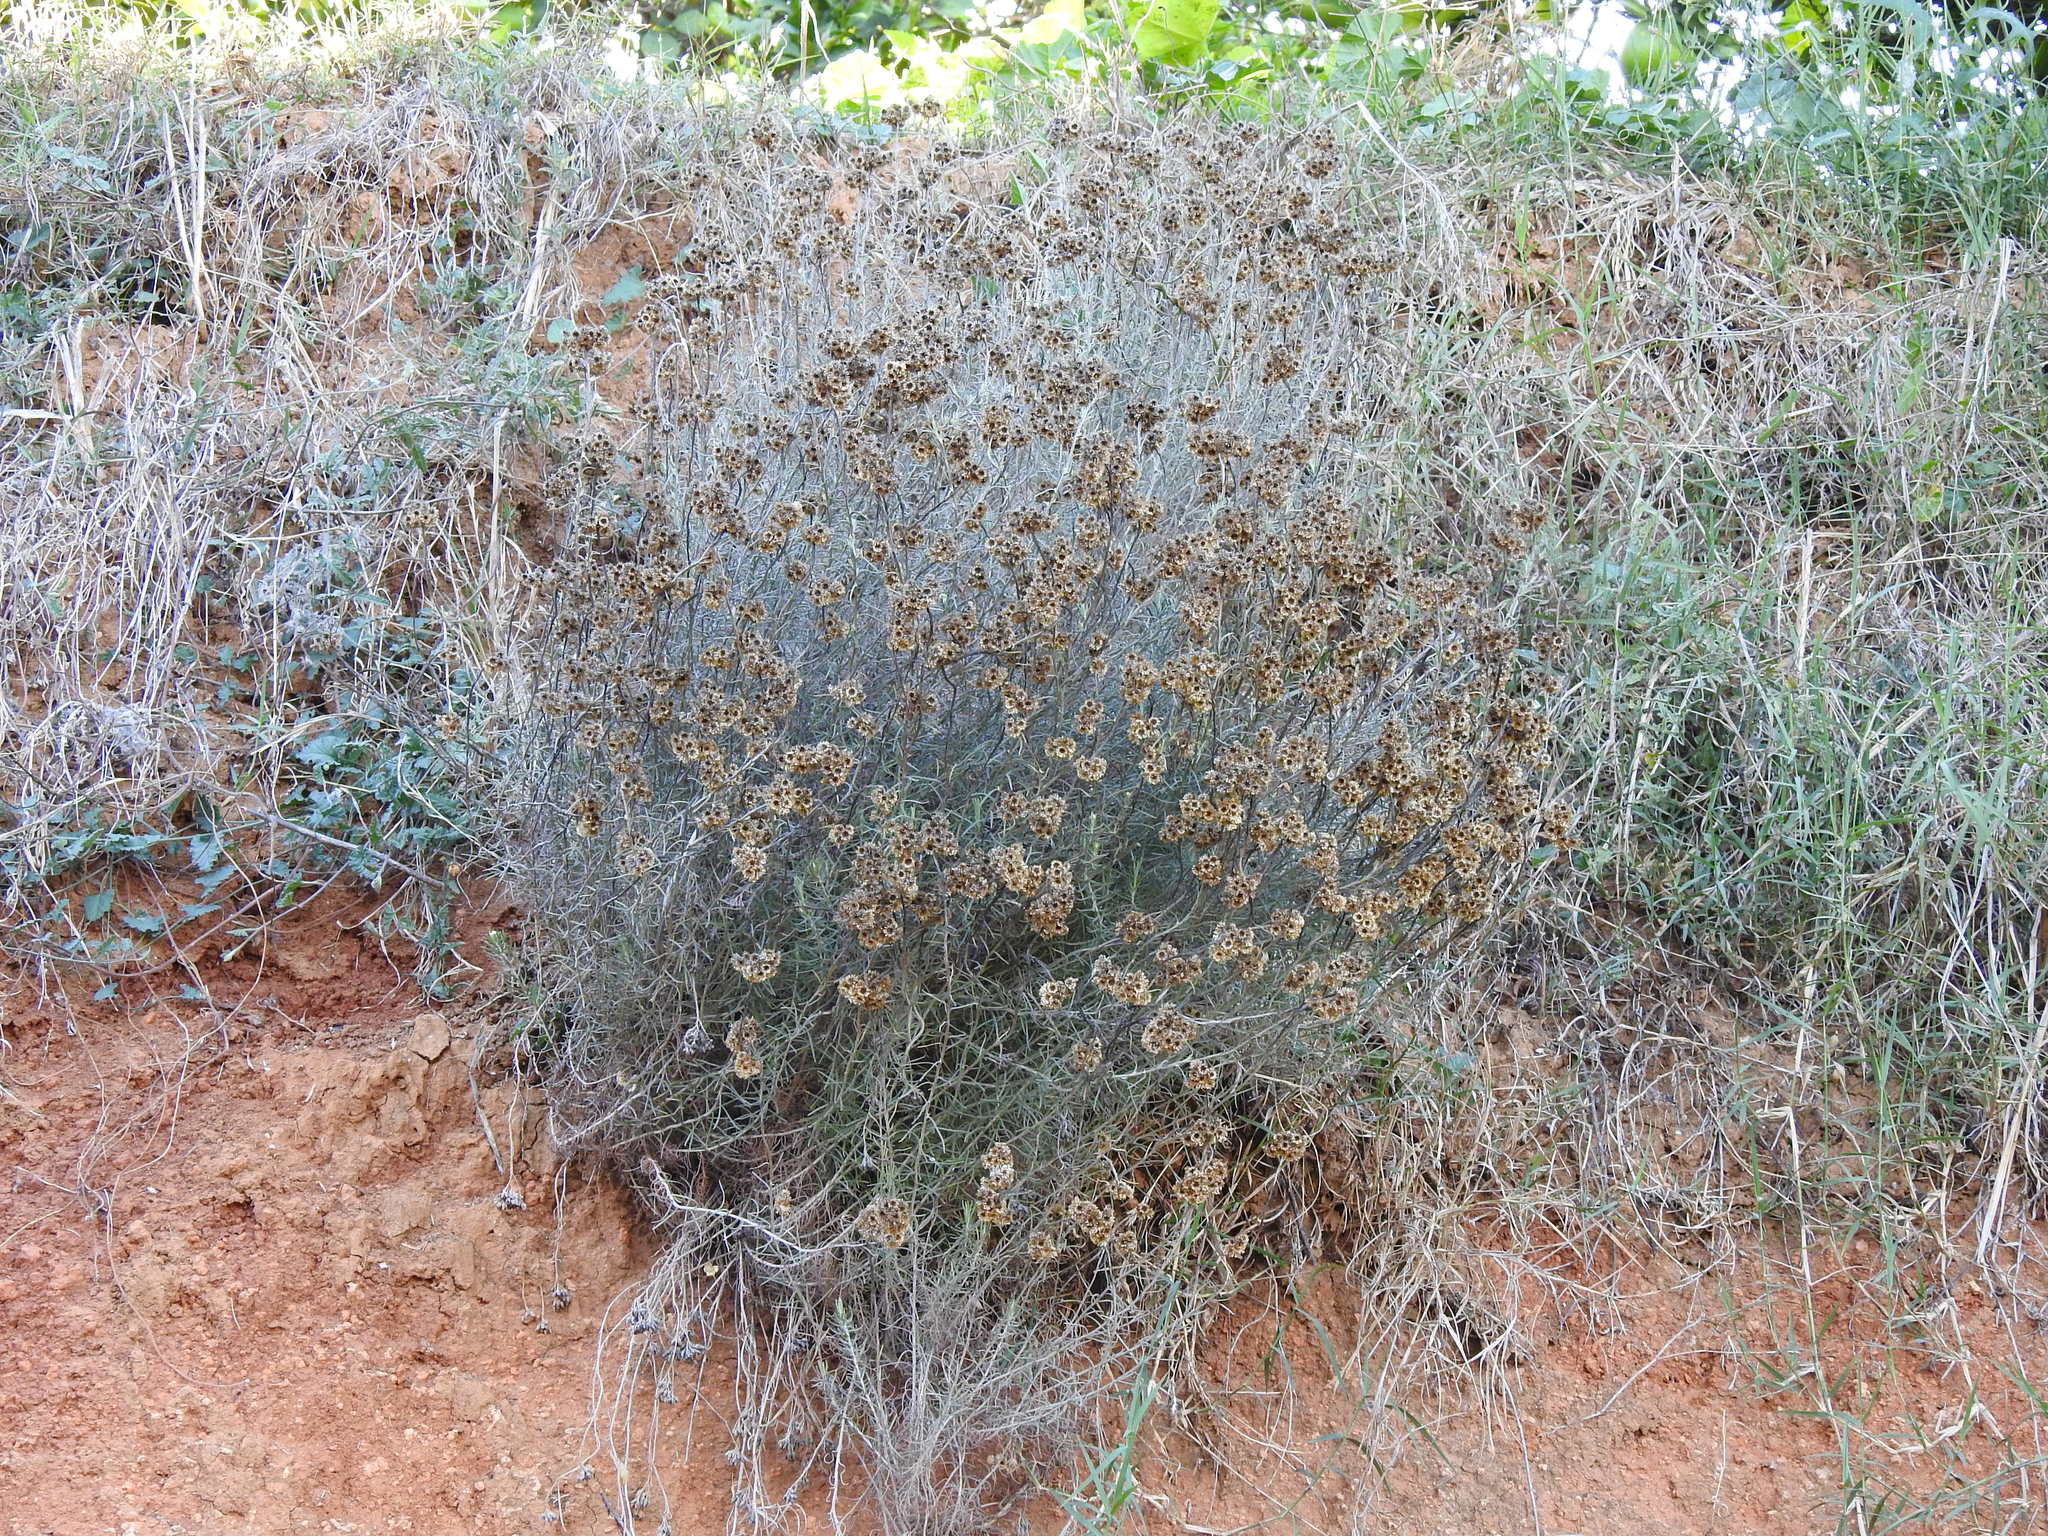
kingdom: Plantae
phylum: Tracheophyta
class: Magnoliopsida
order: Asterales
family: Asteraceae
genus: Helichrysum
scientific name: Helichrysum stoechas
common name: Goldilocks
